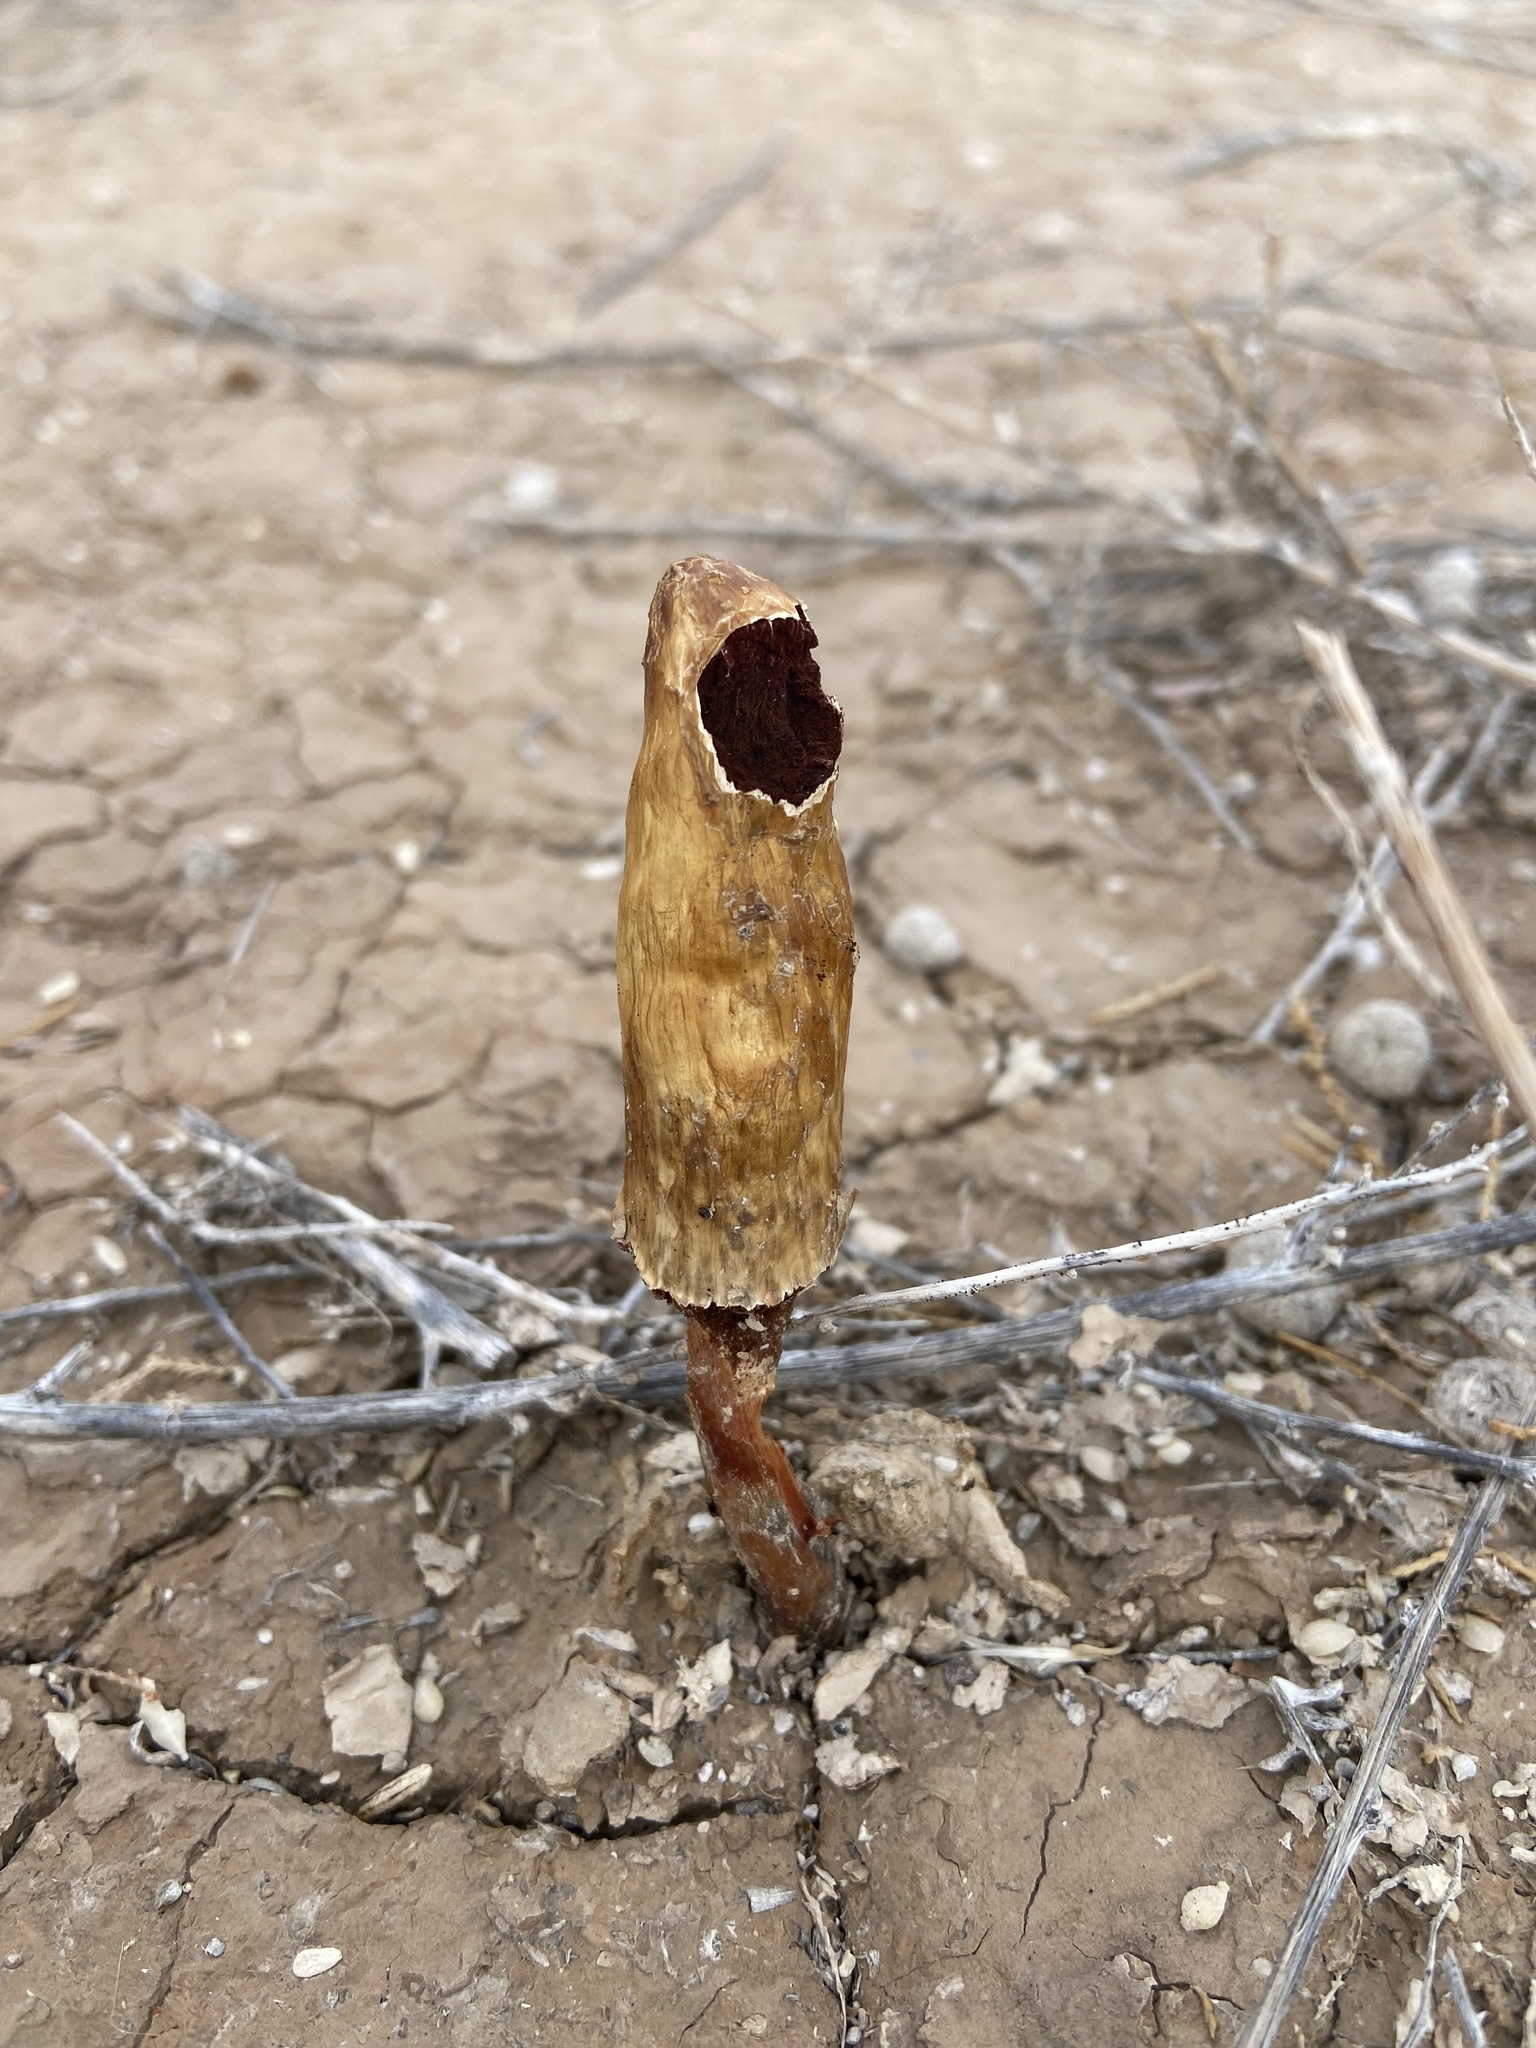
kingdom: Fungi
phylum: Basidiomycota
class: Agaricomycetes
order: Agaricales
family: Agaricaceae
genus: Podaxis
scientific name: Podaxis pistillaris
